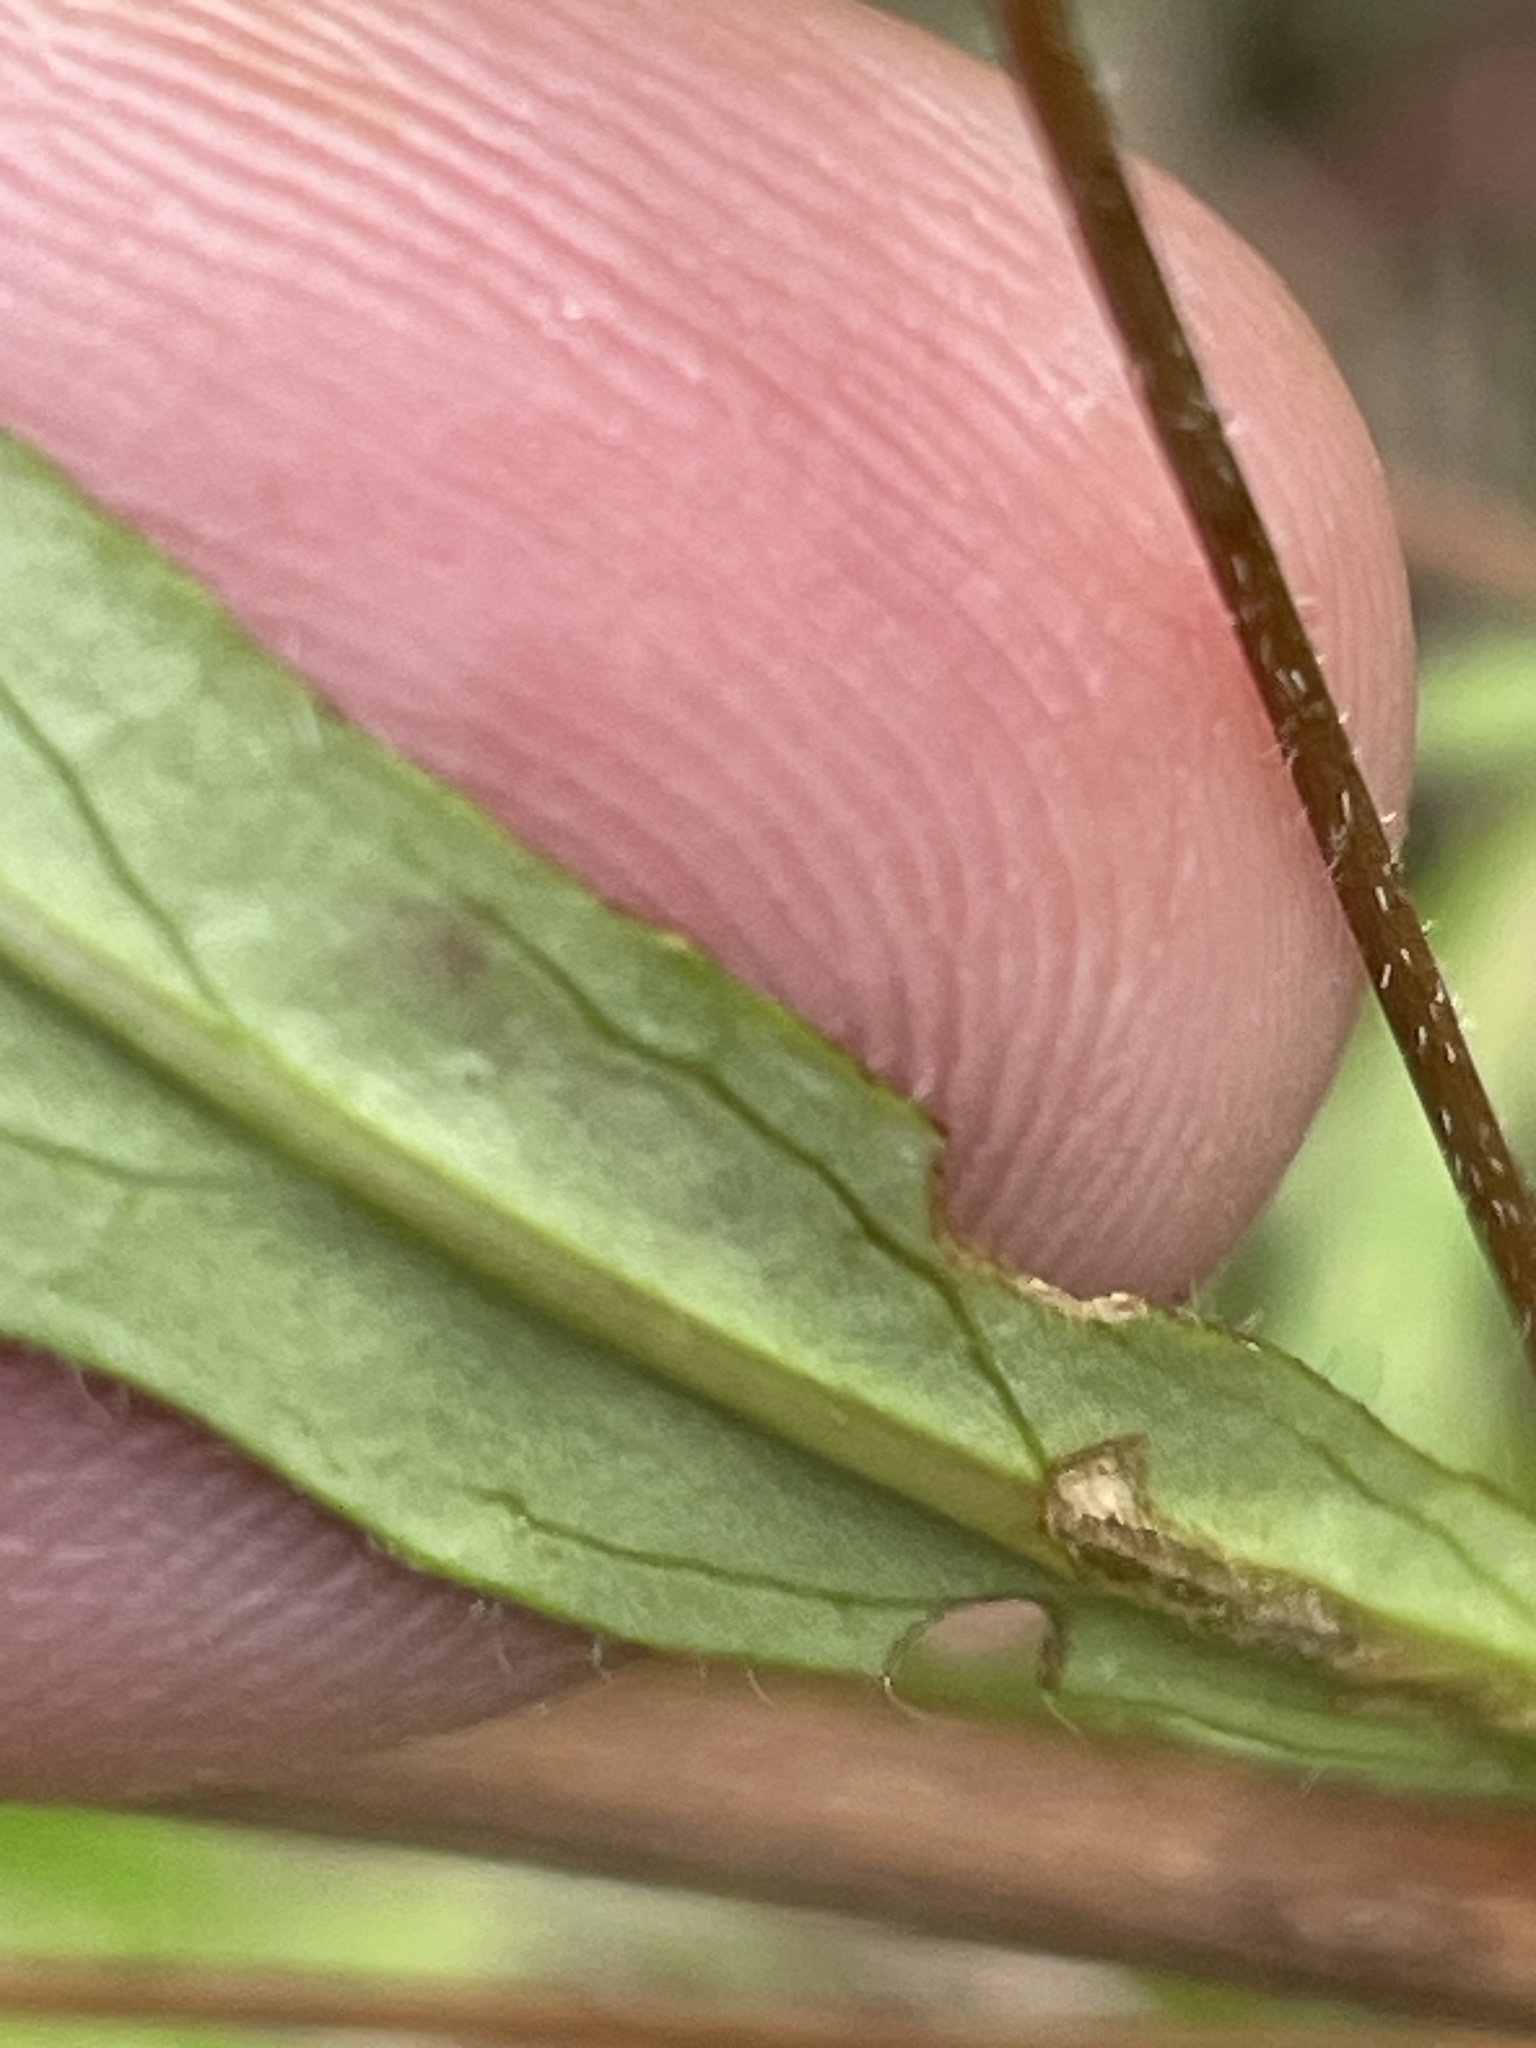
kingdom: Plantae
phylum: Tracheophyta
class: Magnoliopsida
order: Myrtales
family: Onagraceae
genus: Oenothera
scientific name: Oenothera fruticosa
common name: Southern sundrops
